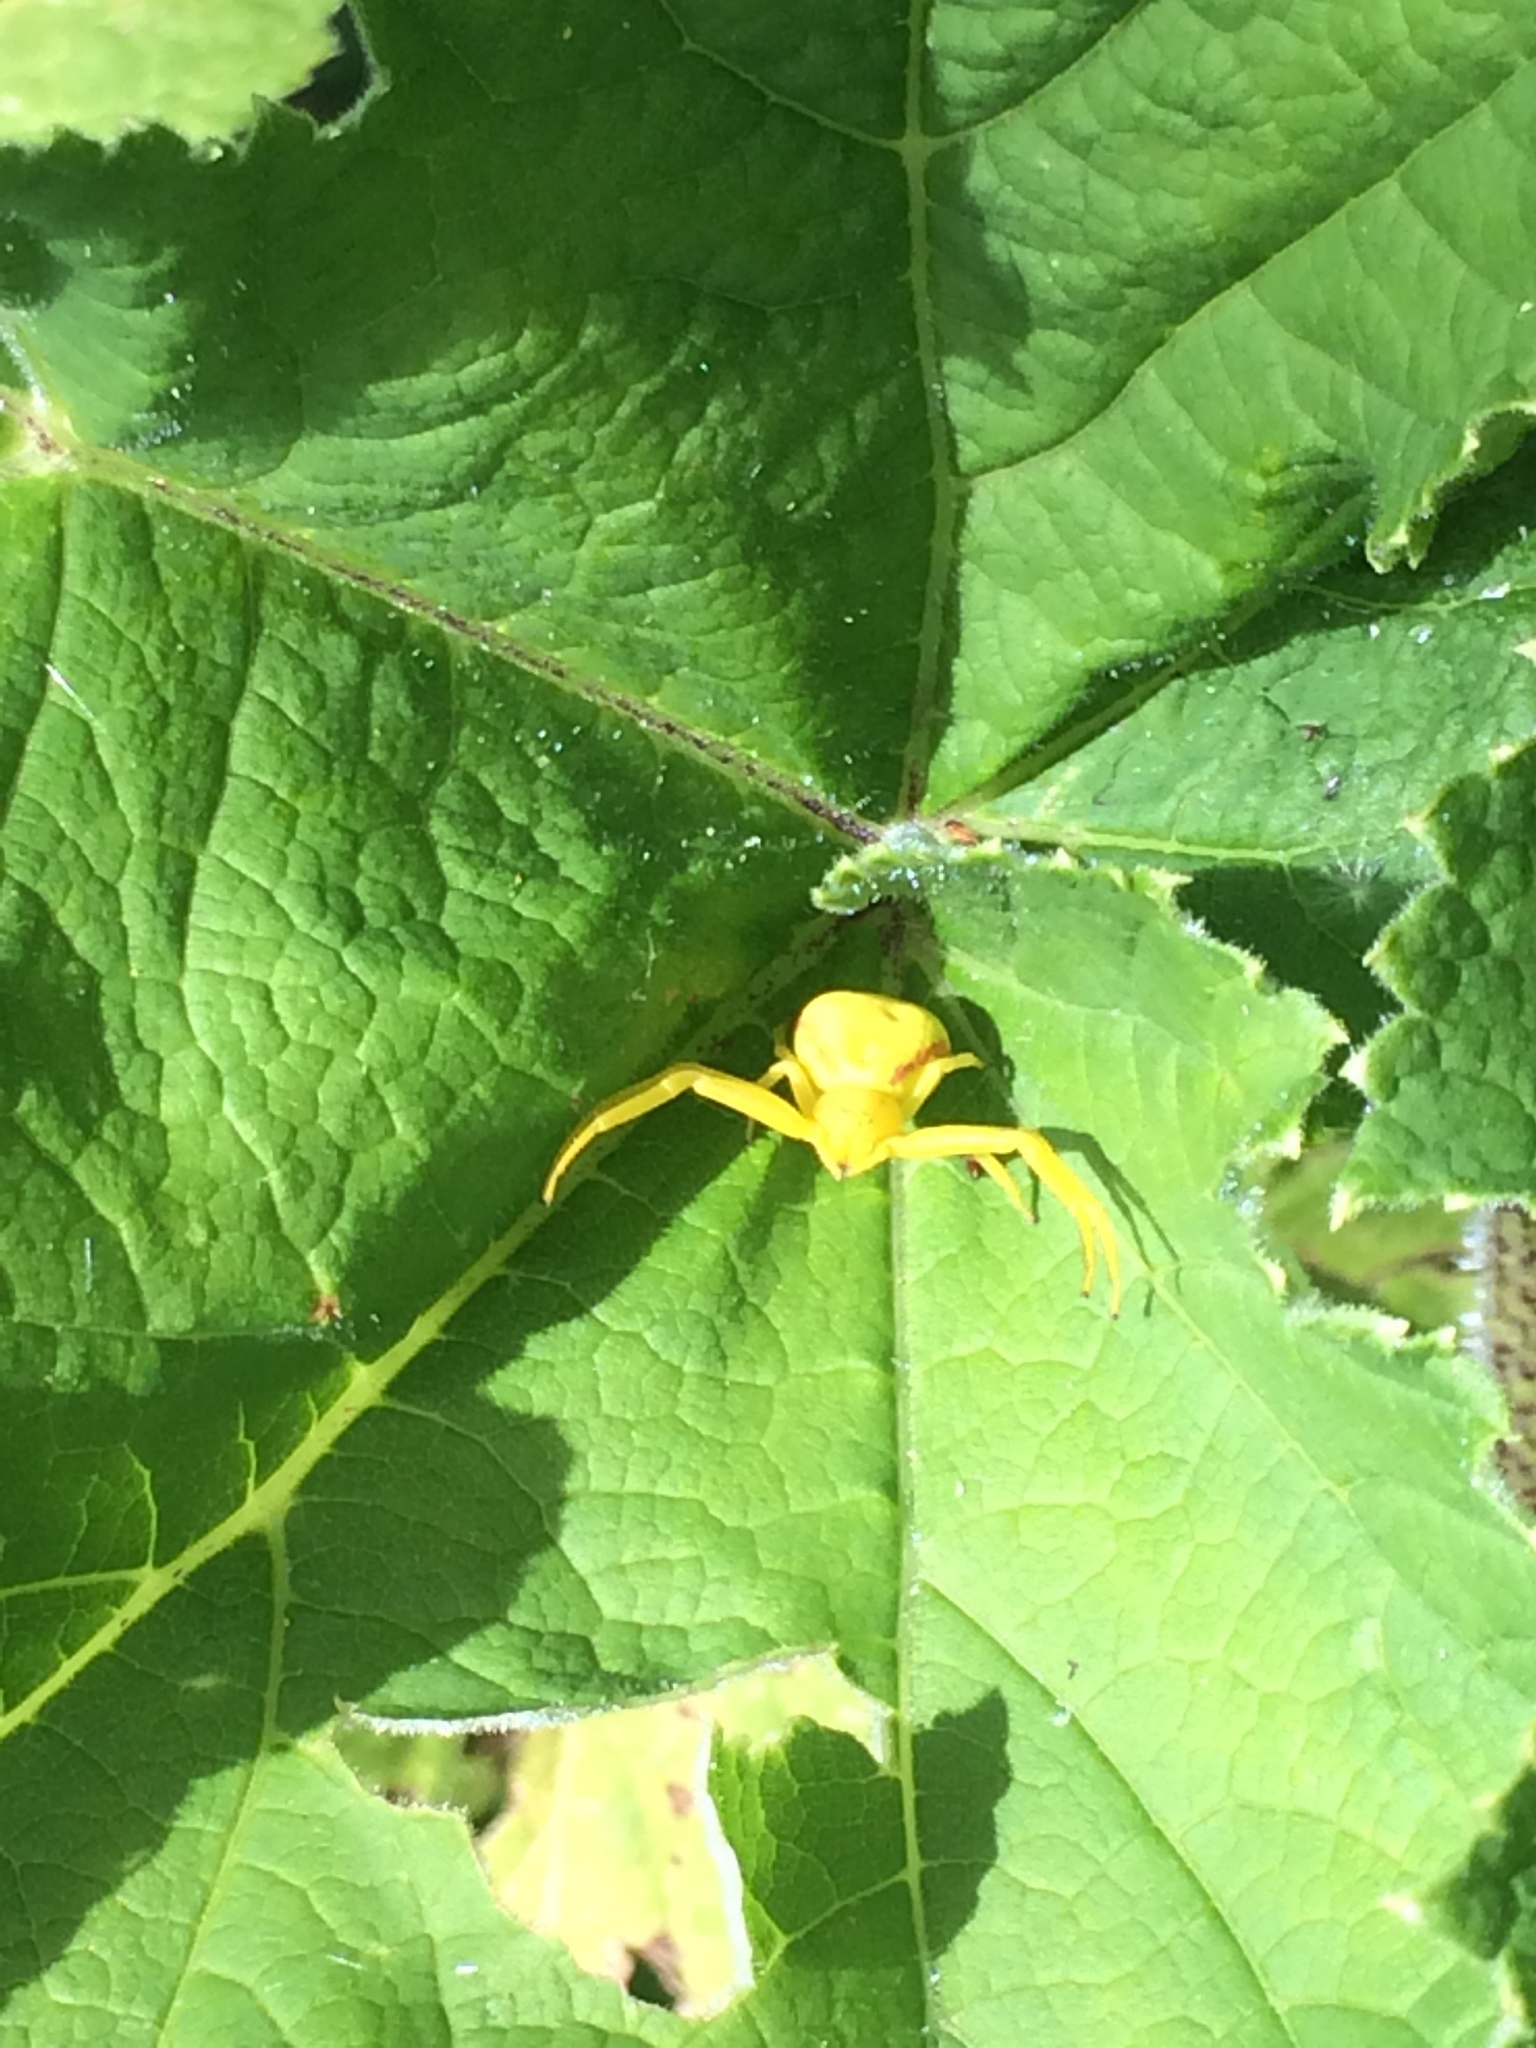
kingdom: Animalia
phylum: Arthropoda
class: Arachnida
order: Araneae
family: Thomisidae
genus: Misumena
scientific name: Misumena vatia
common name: Goldenrod crab spider
